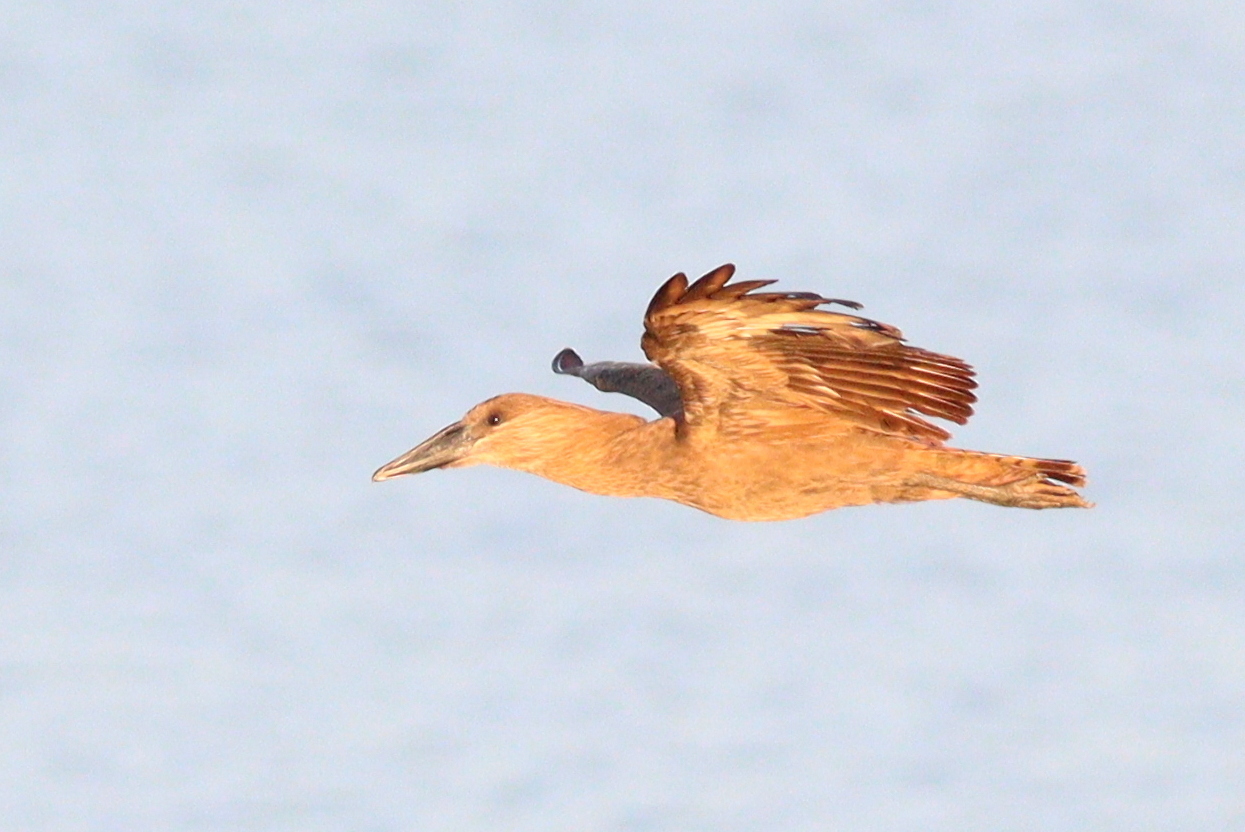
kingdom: Animalia
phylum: Chordata
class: Aves
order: Pelecaniformes
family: Scopidae
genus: Scopus
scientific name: Scopus umbretta
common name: Hamerkop
